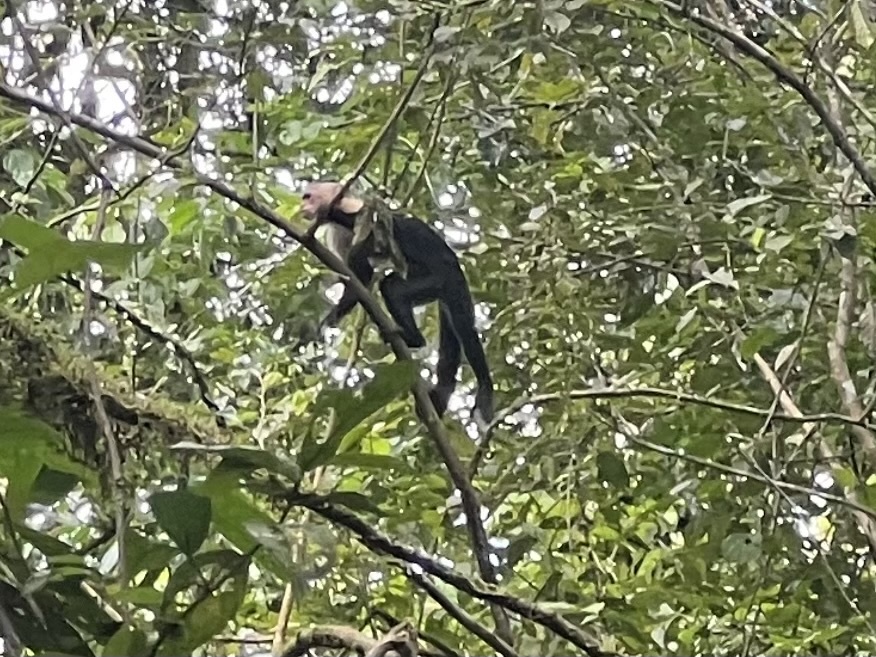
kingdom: Animalia
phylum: Chordata
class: Mammalia
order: Primates
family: Cebidae
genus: Cebus
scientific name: Cebus imitator
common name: Panamanian white-faced capuchin
